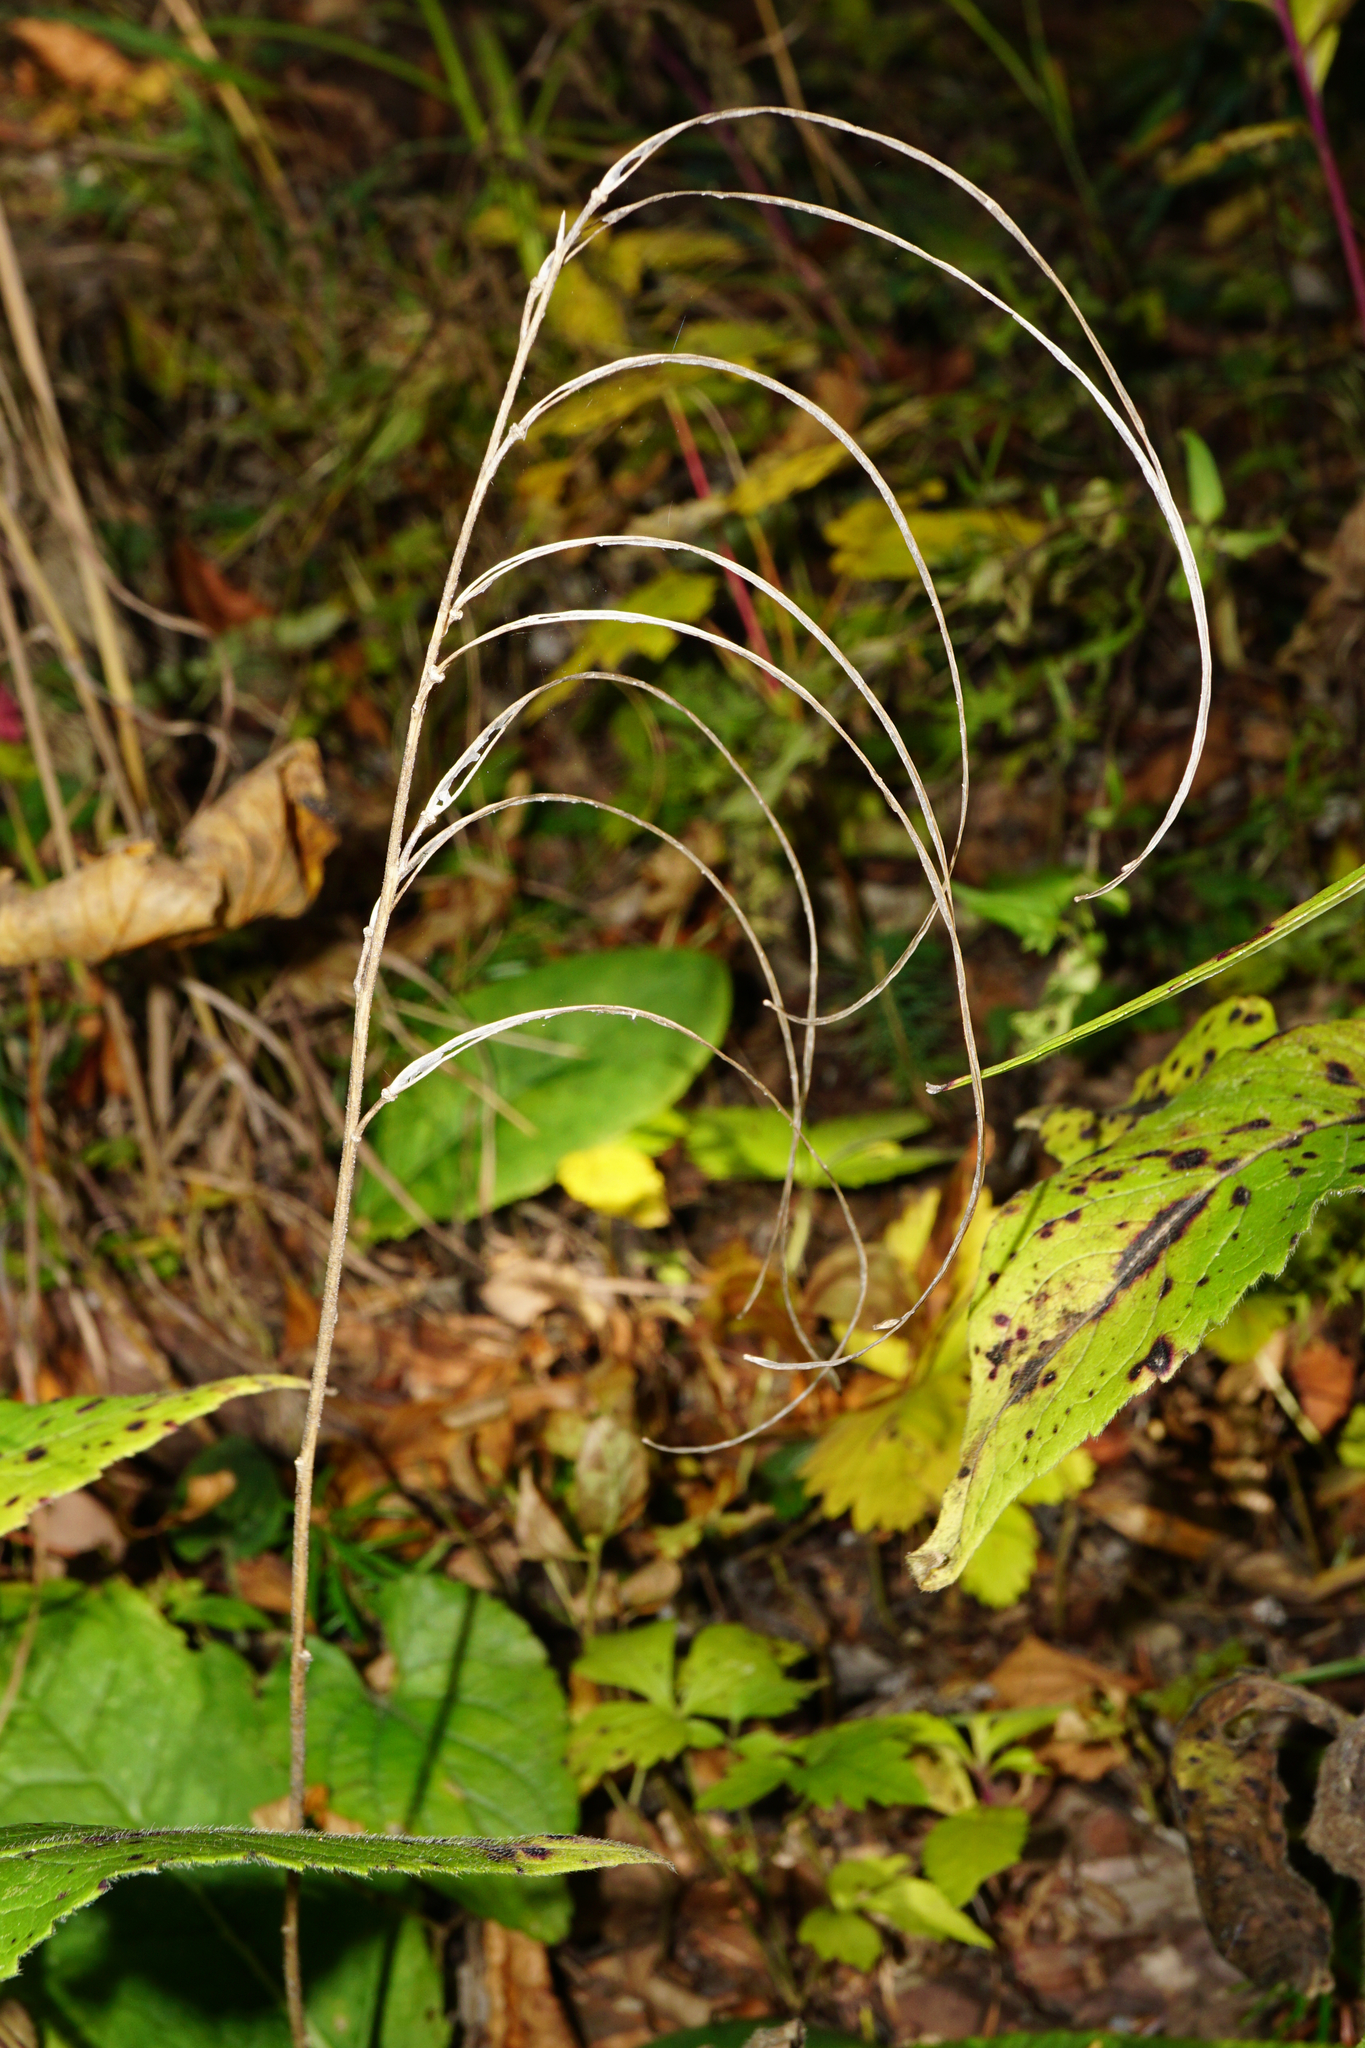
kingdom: Plantae
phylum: Tracheophyta
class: Magnoliopsida
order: Brassicales
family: Brassicaceae
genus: Pseudoturritis
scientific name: Pseudoturritis turrita
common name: Tower cress
